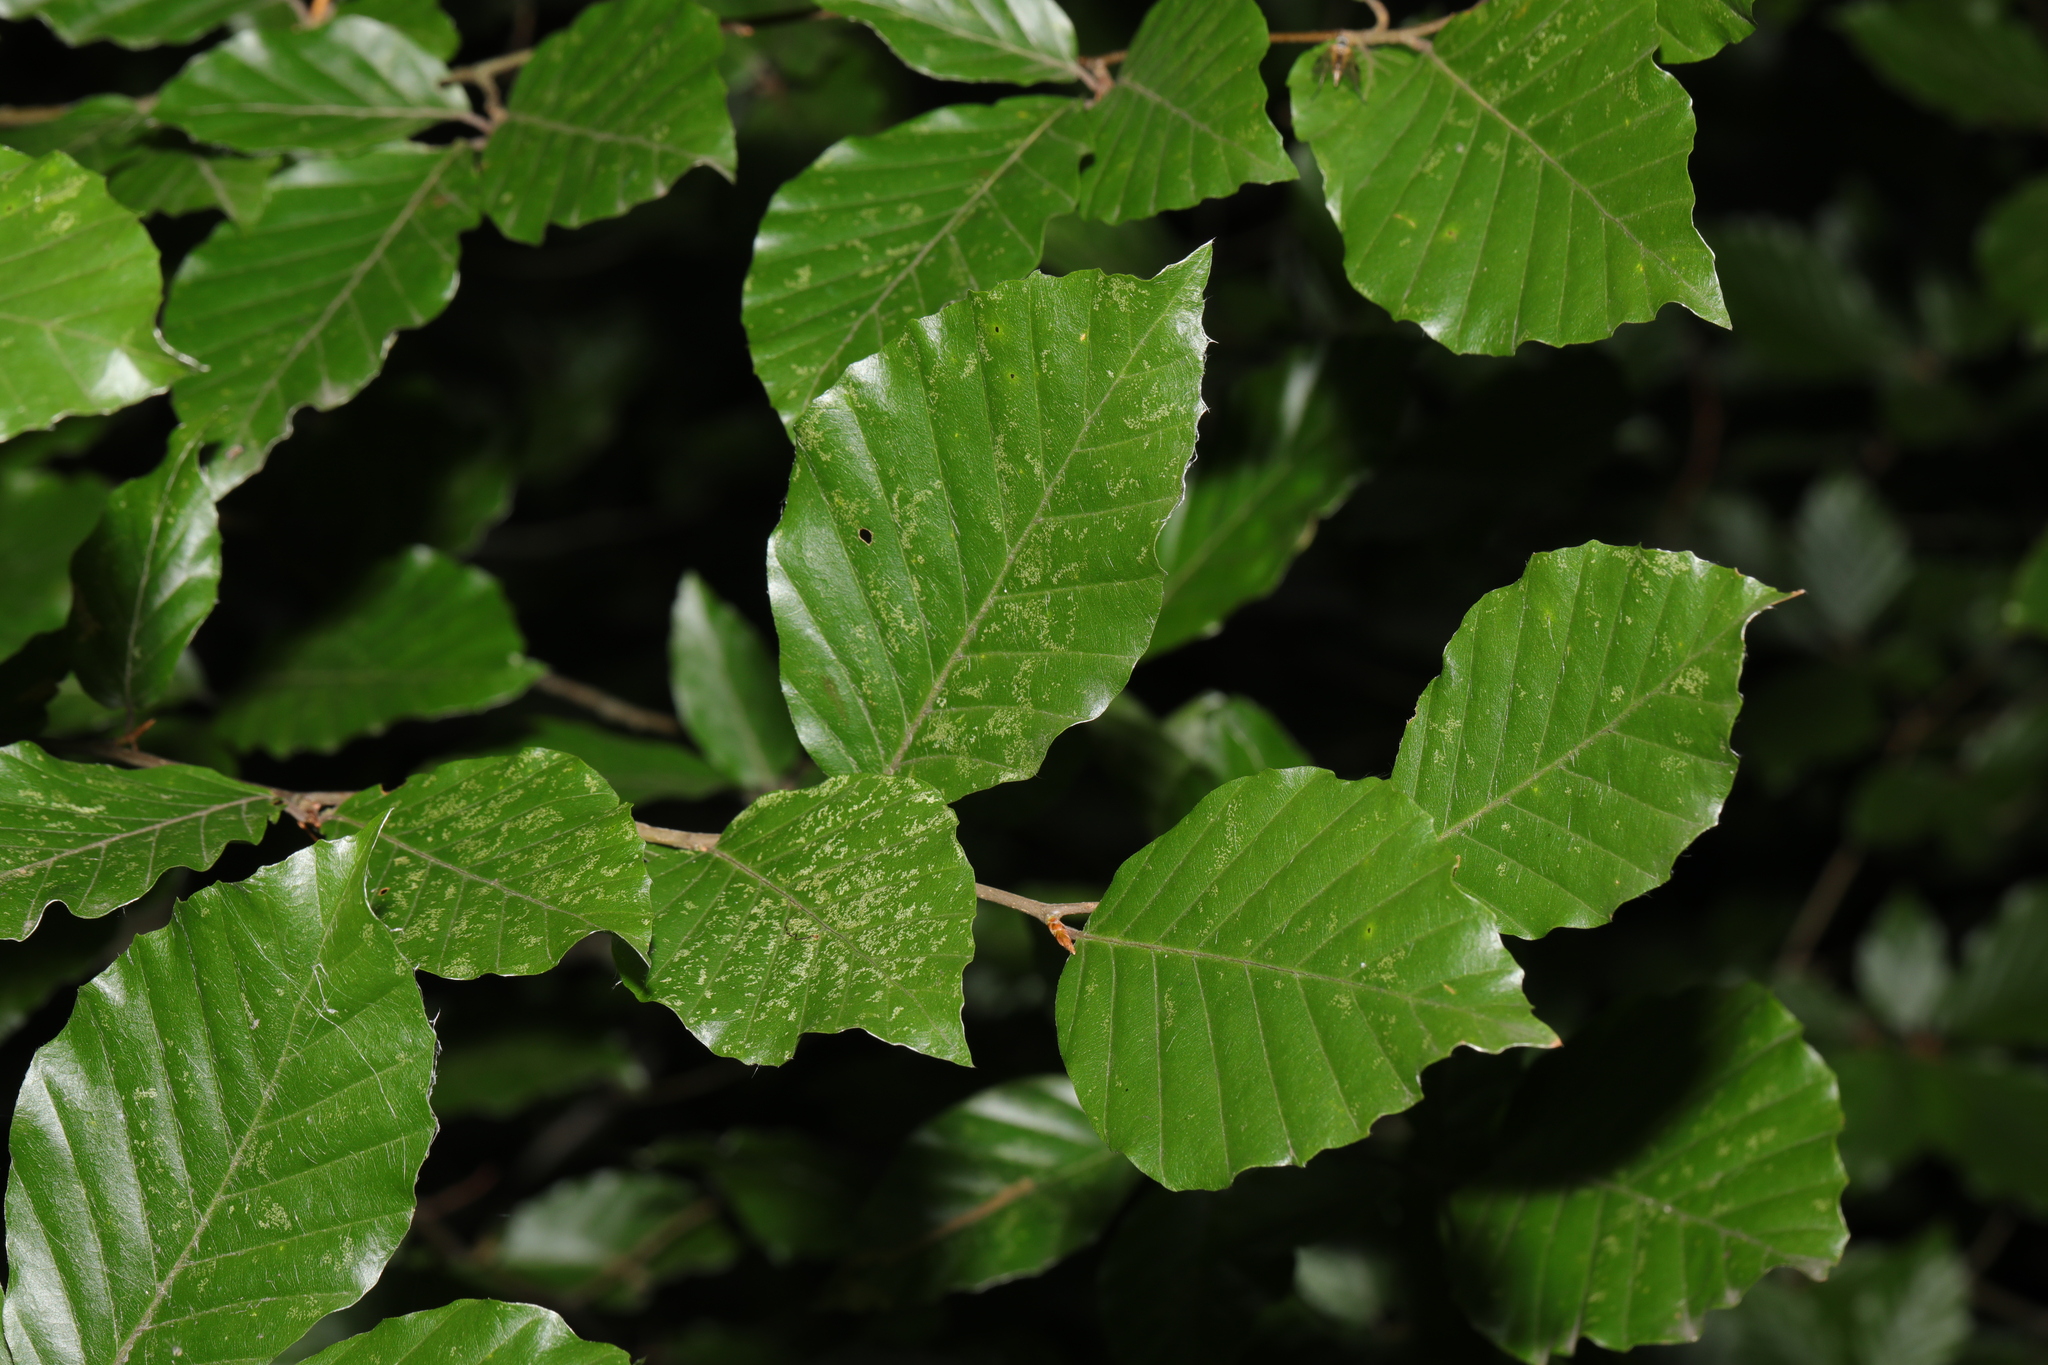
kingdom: Plantae
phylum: Tracheophyta
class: Magnoliopsida
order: Fagales
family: Fagaceae
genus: Fagus
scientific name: Fagus sylvatica
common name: Beech
